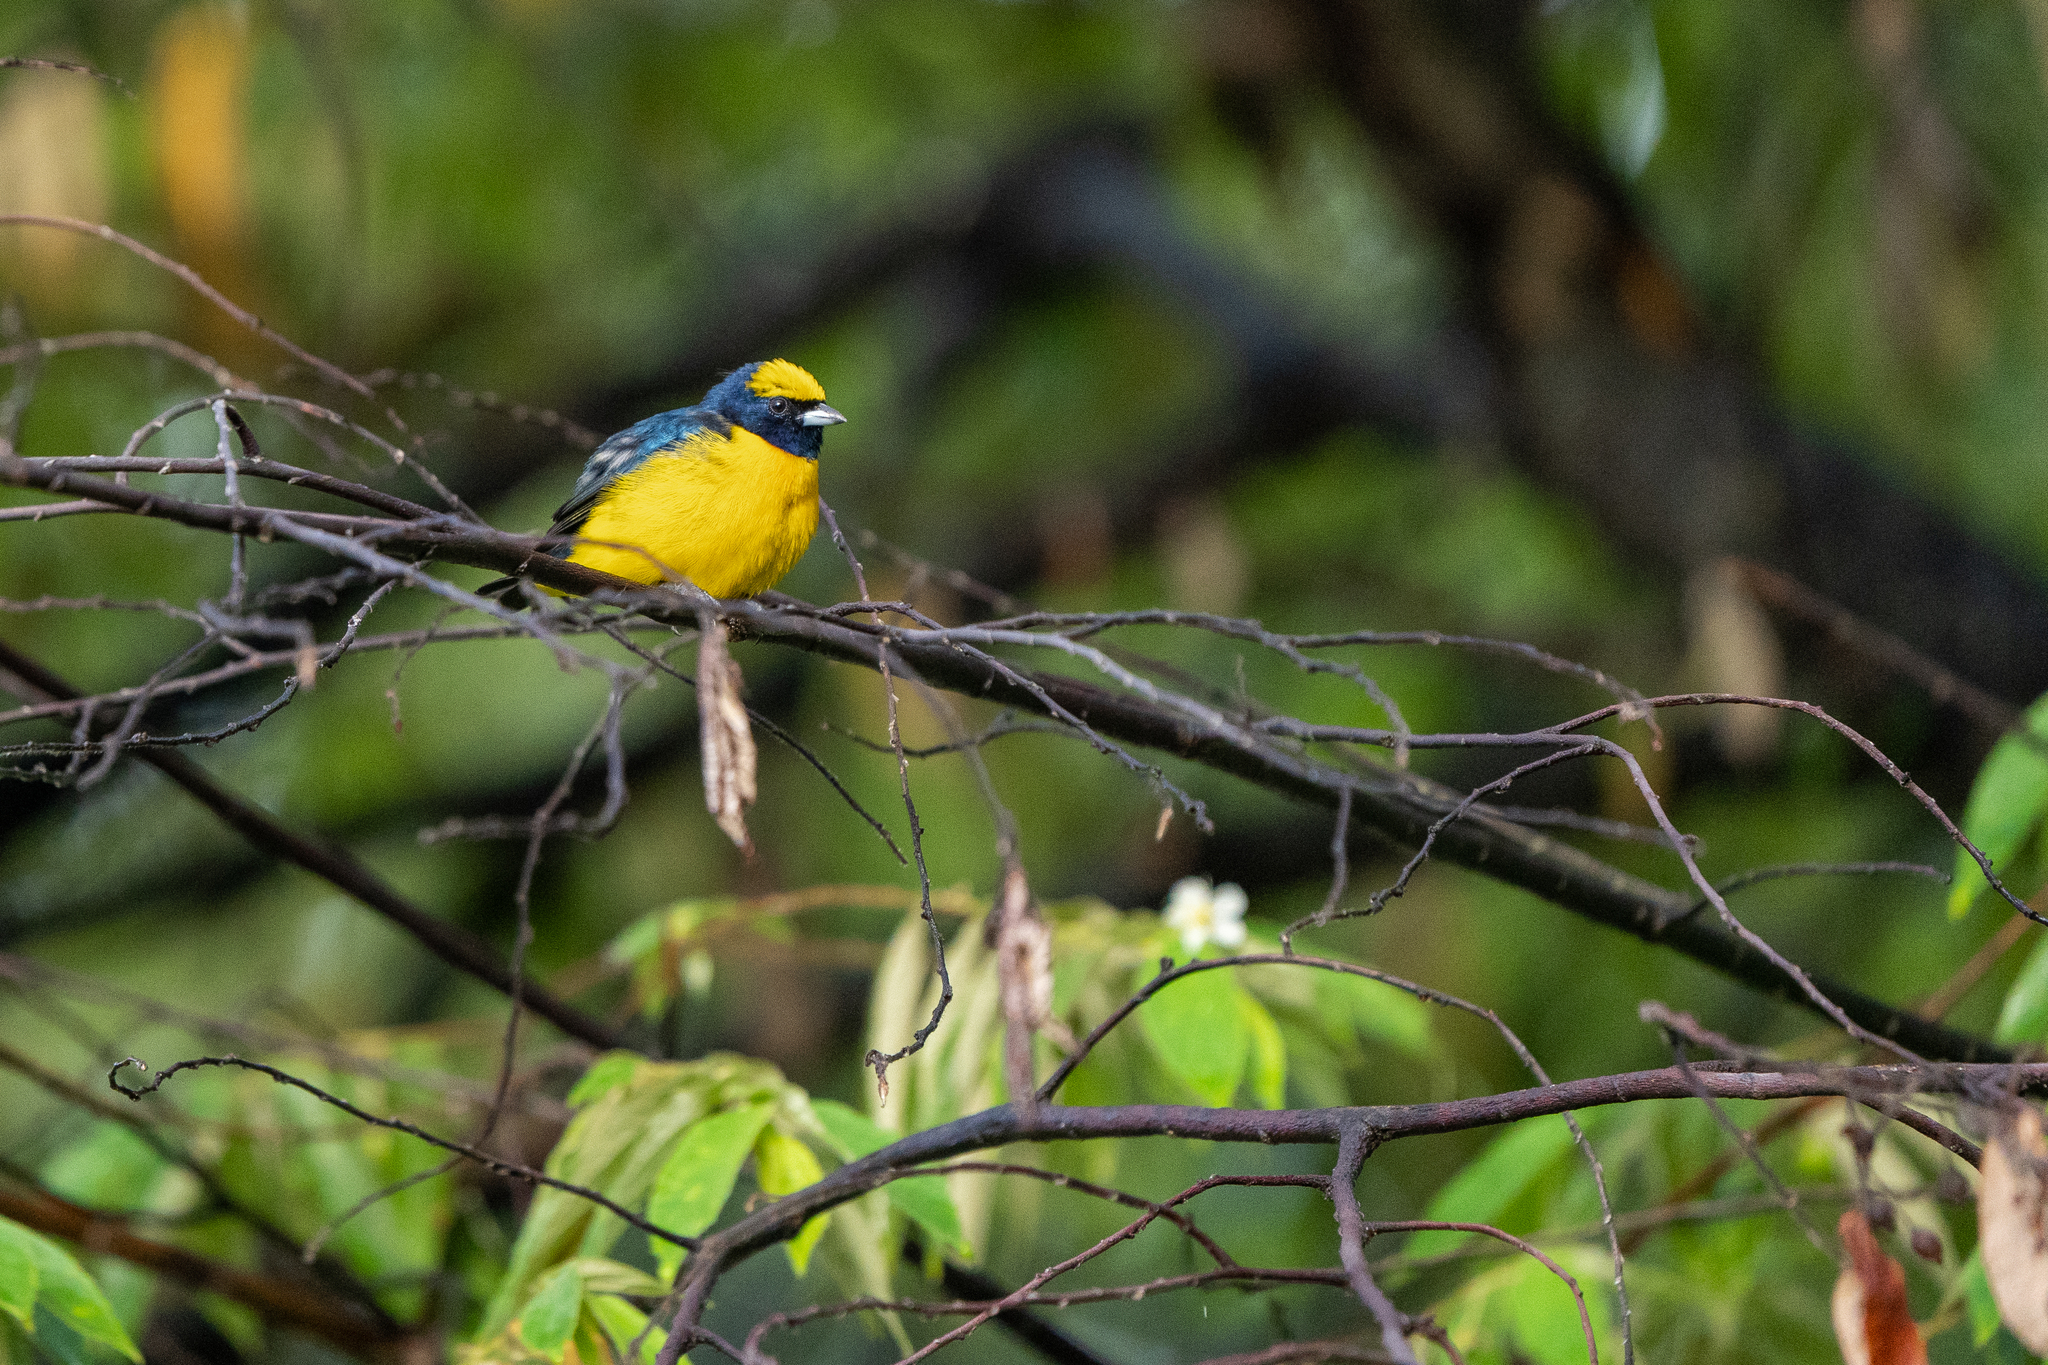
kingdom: Animalia
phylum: Chordata
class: Aves
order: Passeriformes
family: Fringillidae
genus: Euphonia
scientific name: Euphonia luteicapilla
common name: Yellow-crowned euphonia
